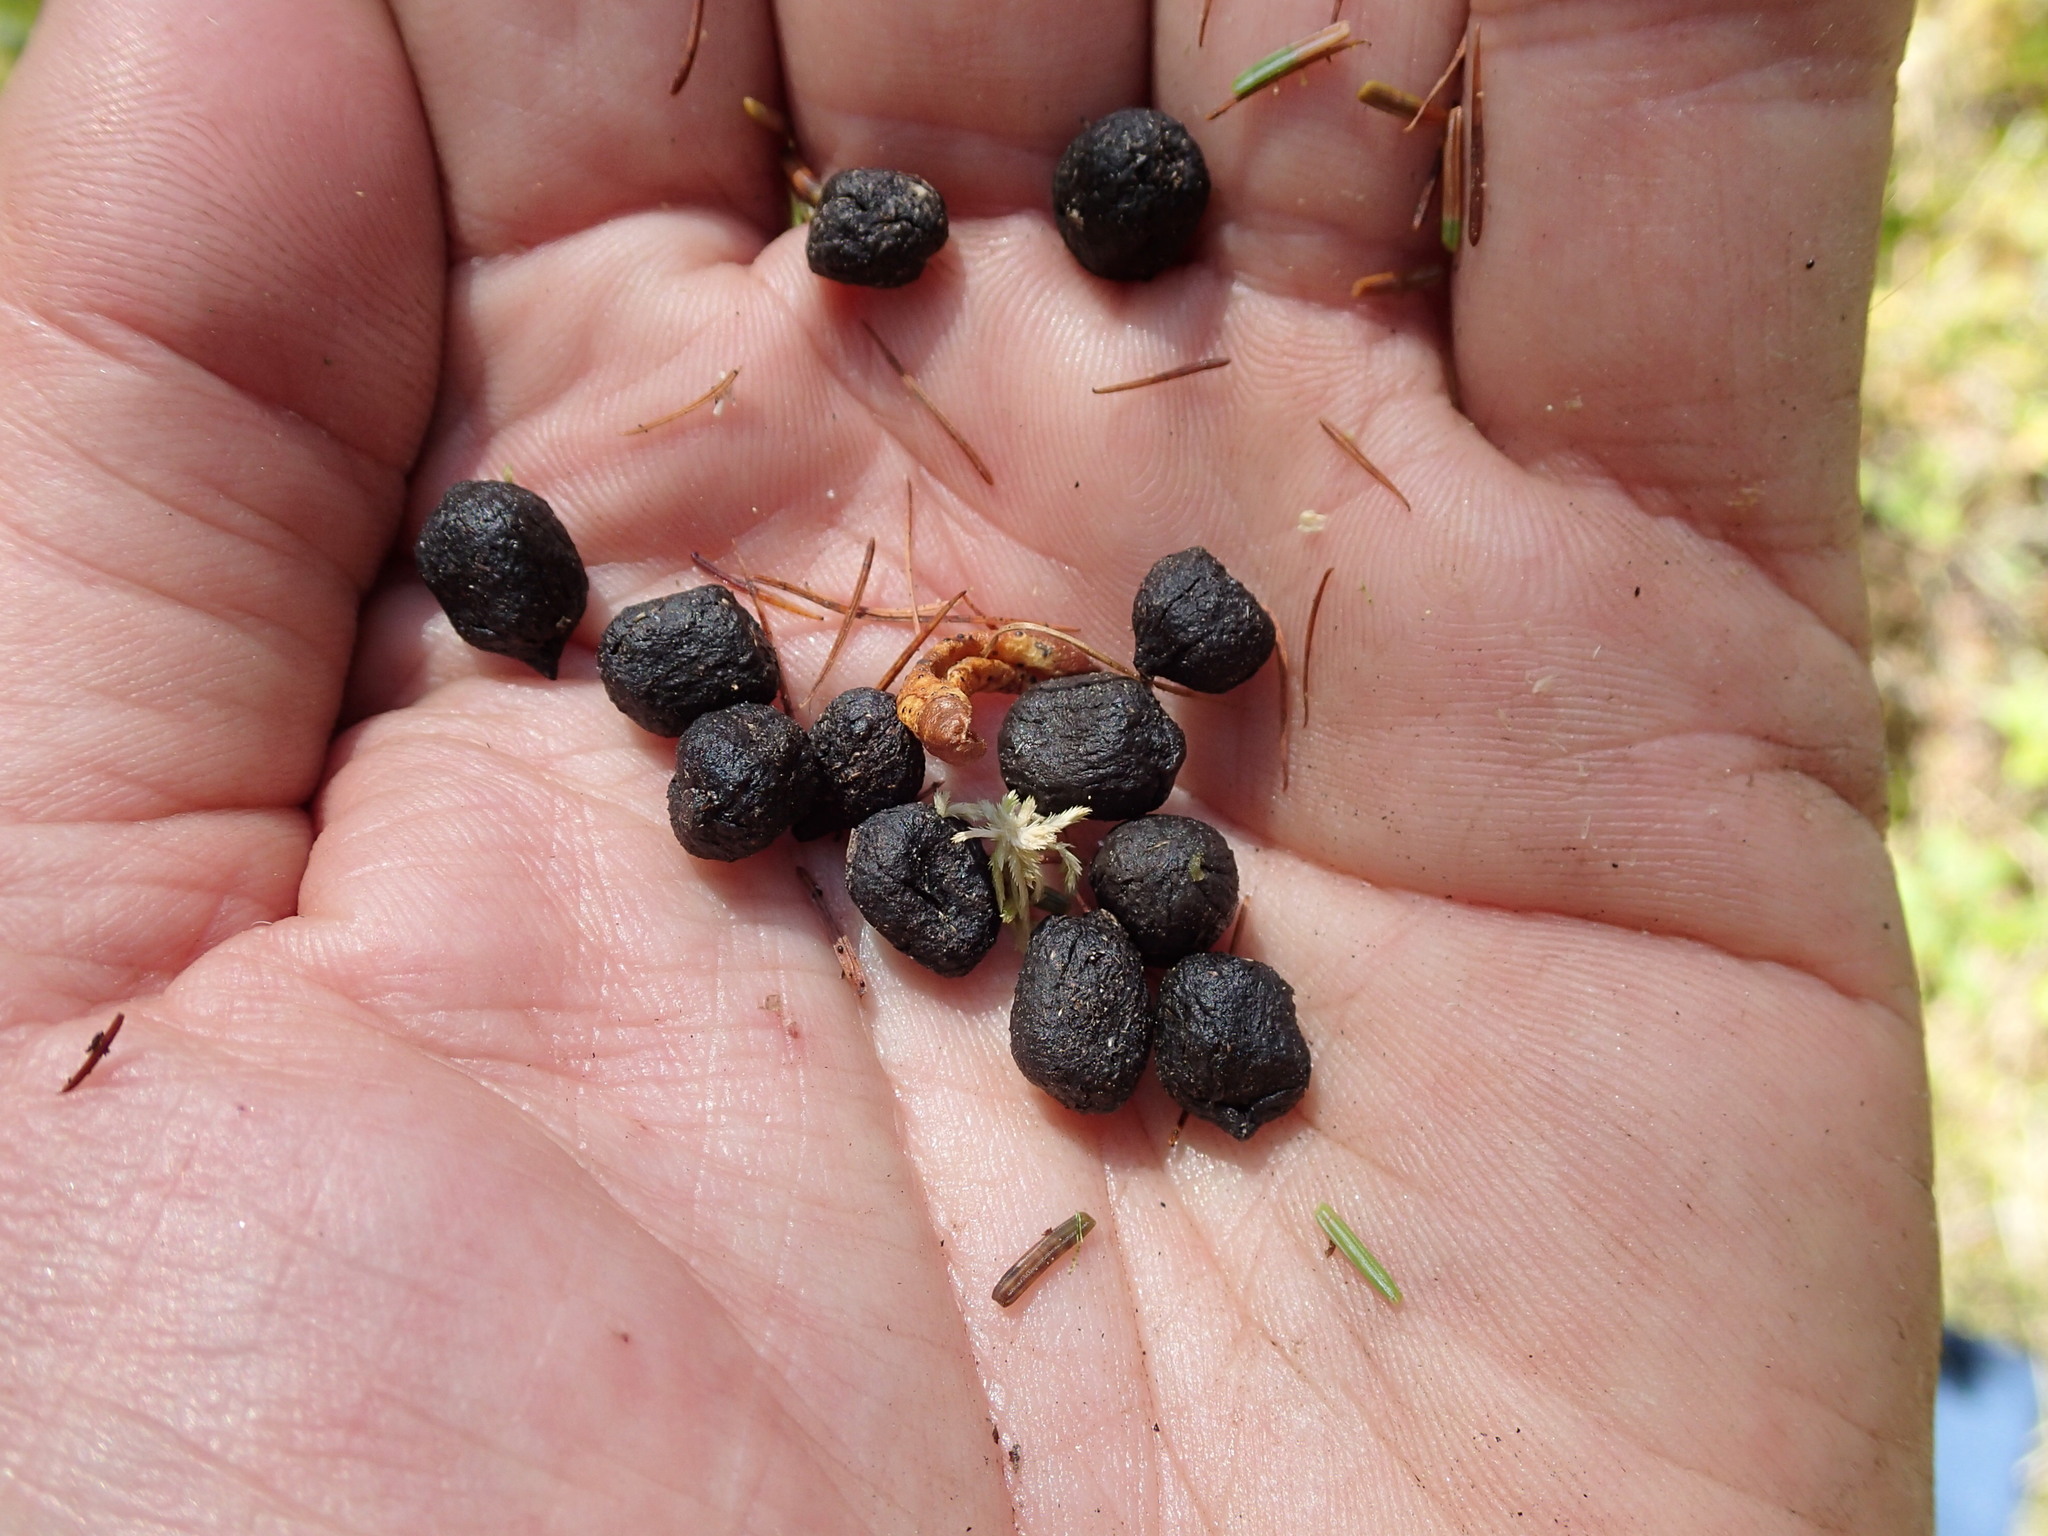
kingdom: Animalia
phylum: Chordata
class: Mammalia
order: Artiodactyla
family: Cervidae
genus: Rangifer
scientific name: Rangifer tarandus
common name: Reindeer
